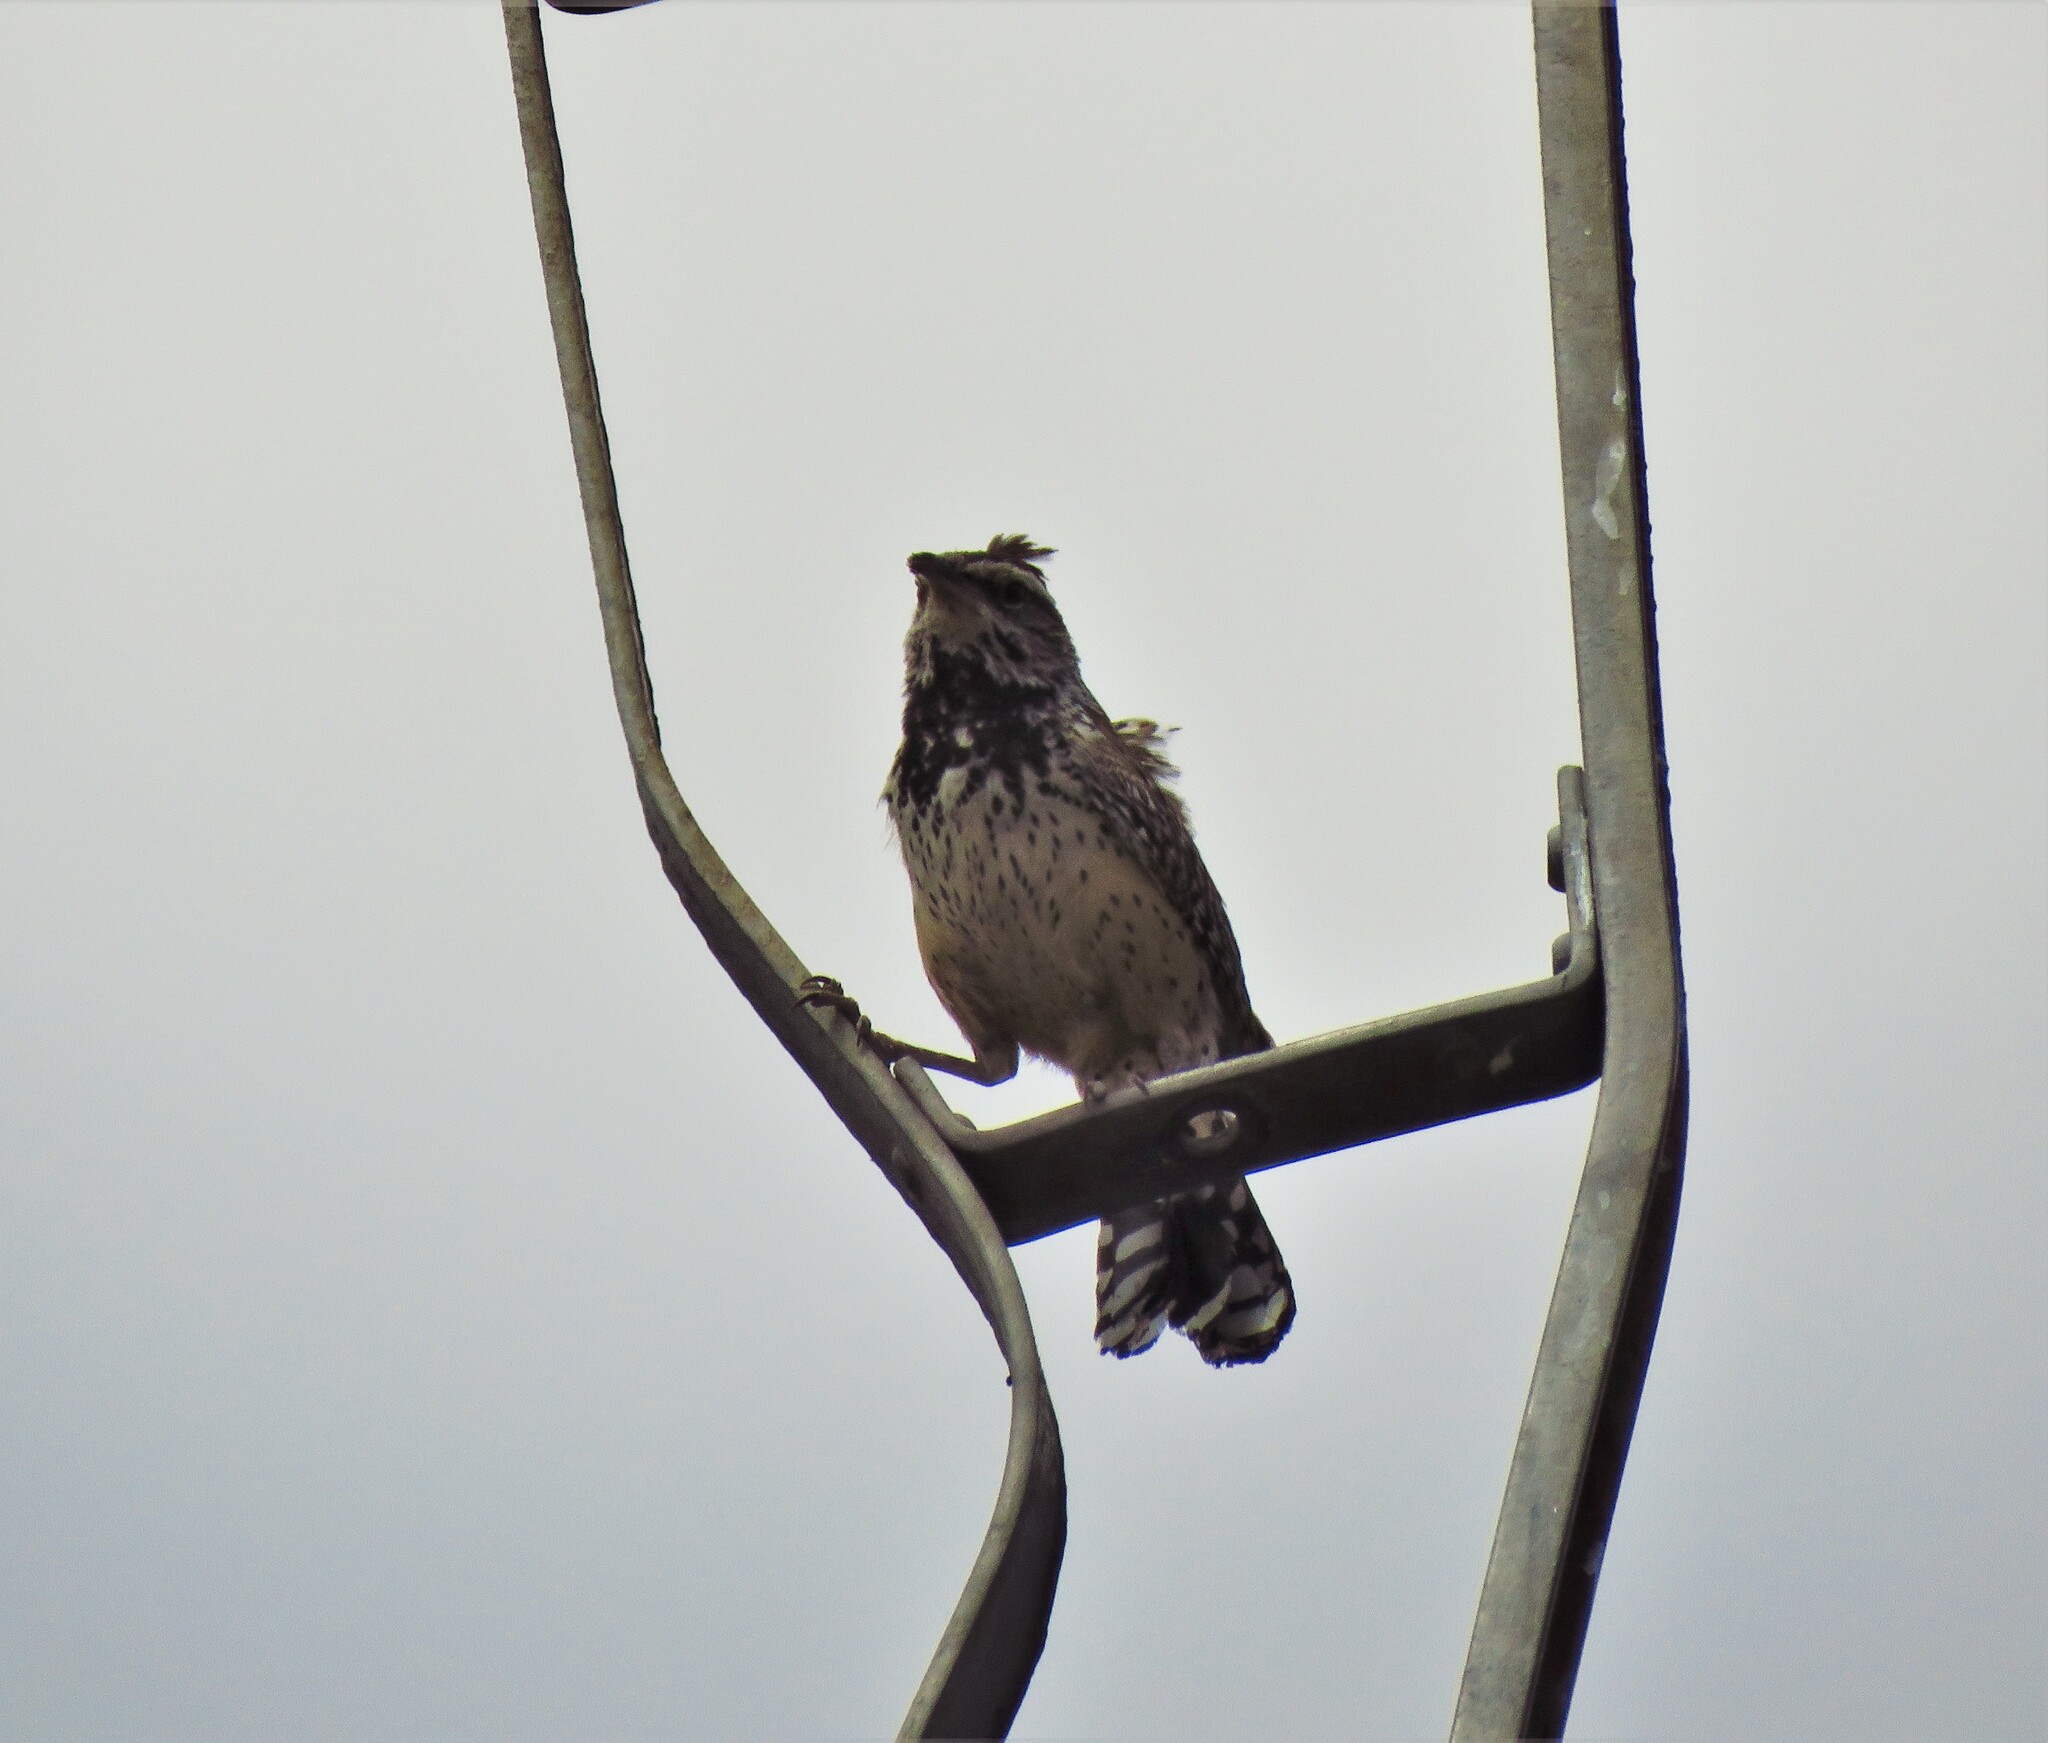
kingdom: Animalia
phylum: Chordata
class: Aves
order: Passeriformes
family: Troglodytidae
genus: Campylorhynchus
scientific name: Campylorhynchus brunneicapillus
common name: Cactus wren
